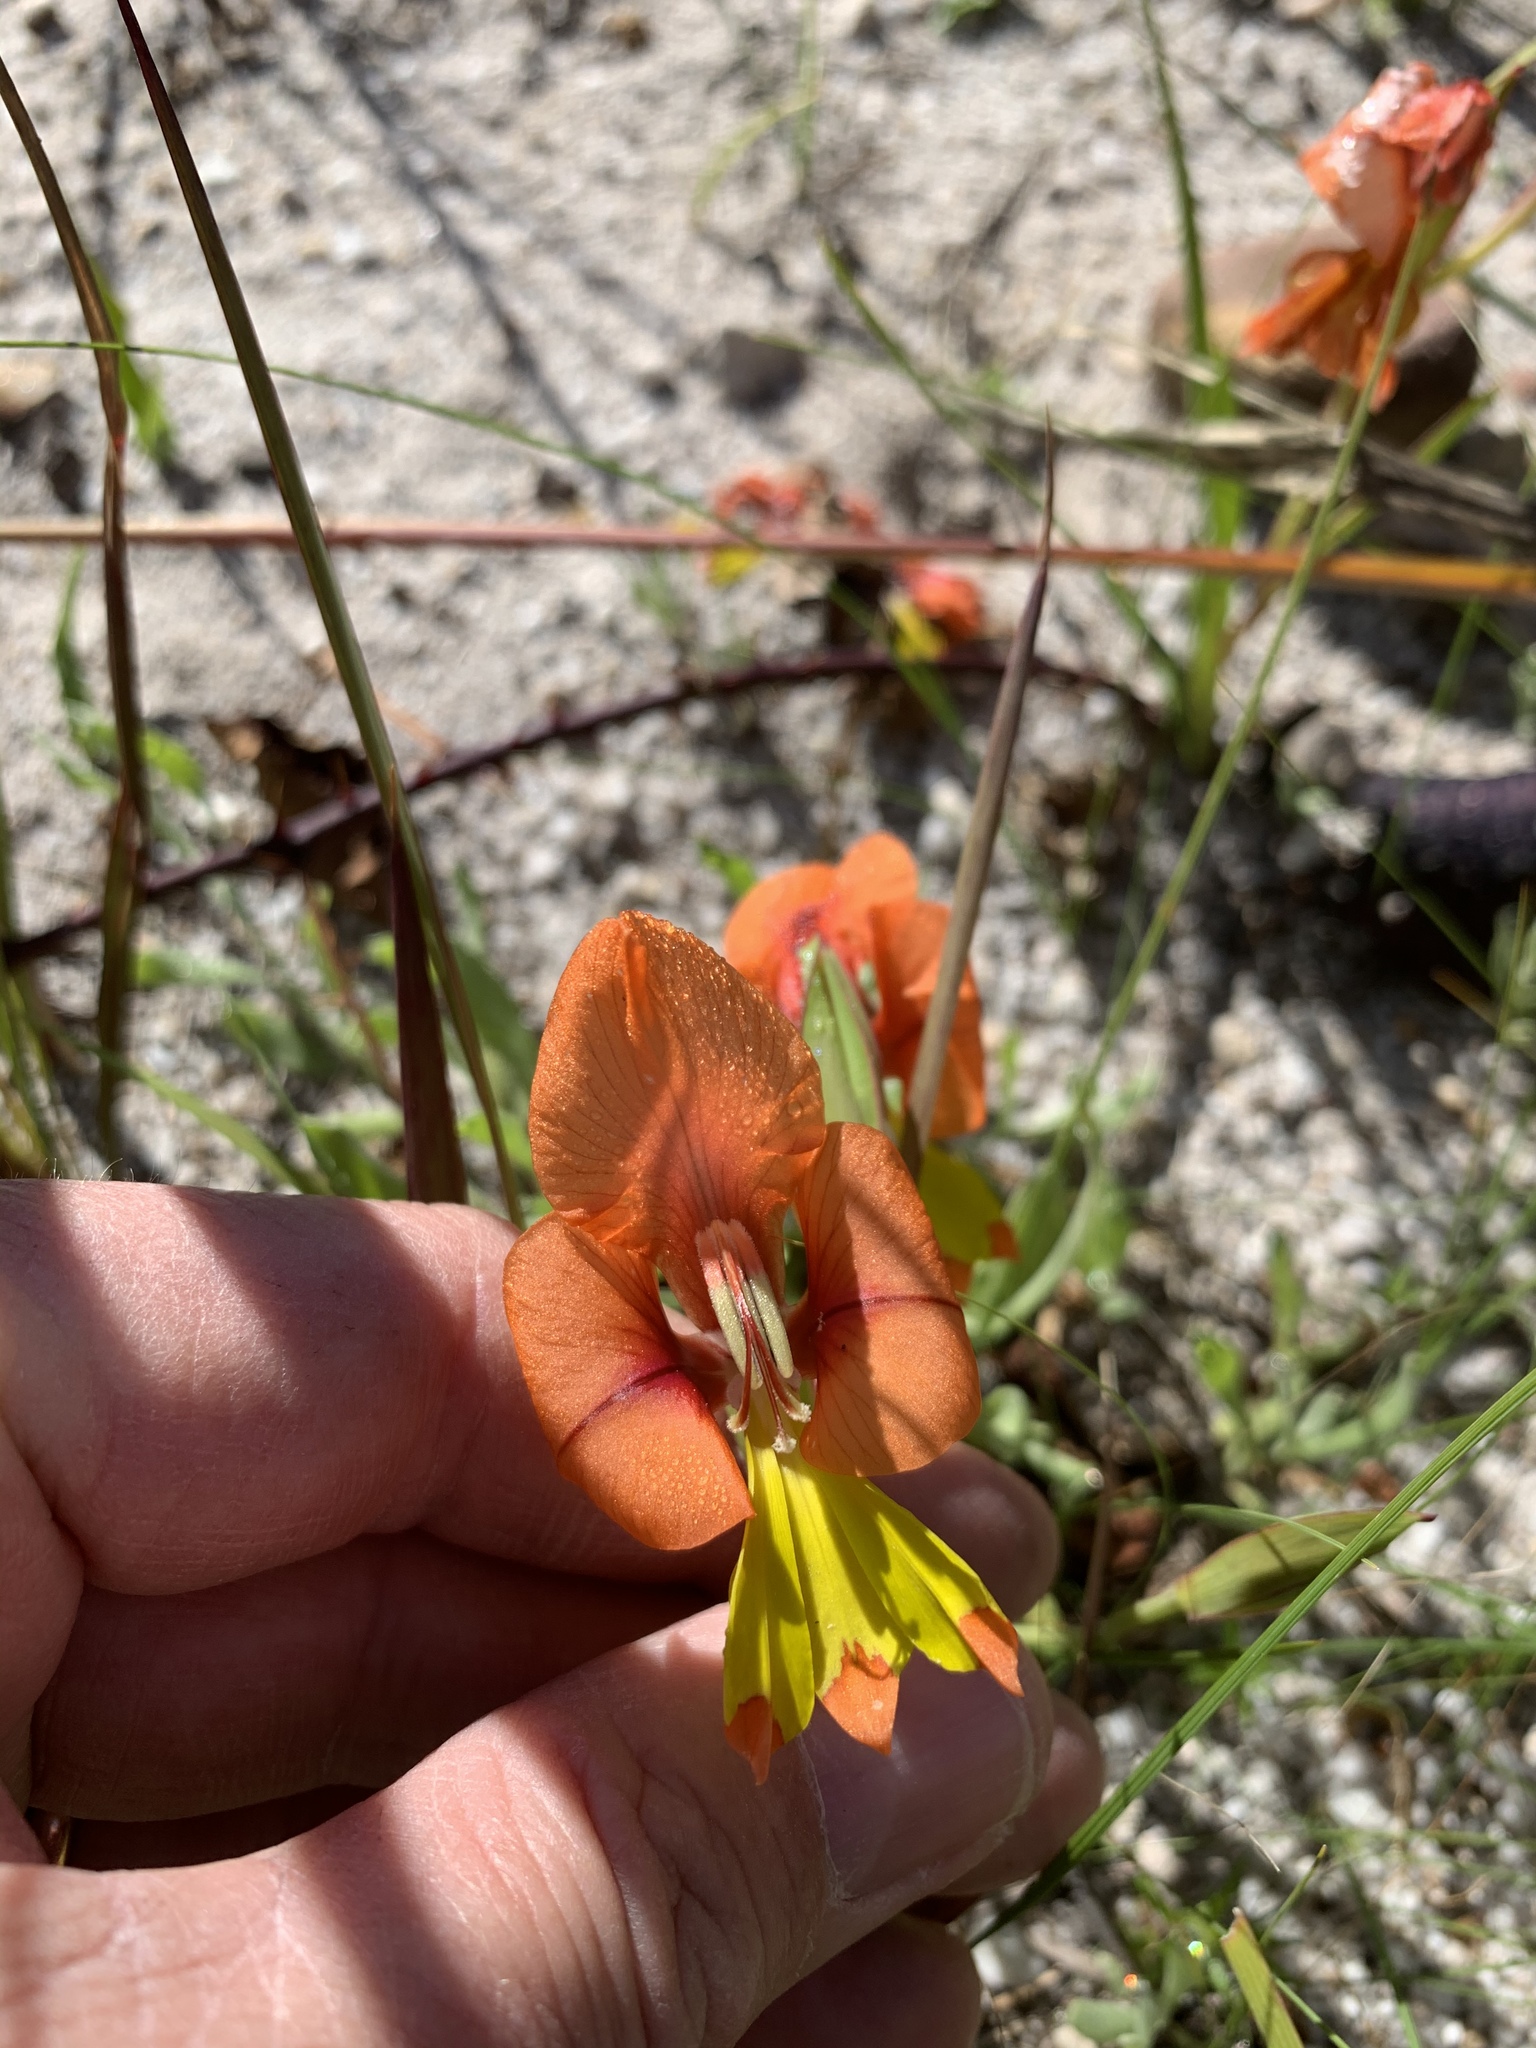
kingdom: Plantae
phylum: Tracheophyta
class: Liliopsida
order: Asparagales
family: Iridaceae
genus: Gladiolus
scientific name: Gladiolus alatus
